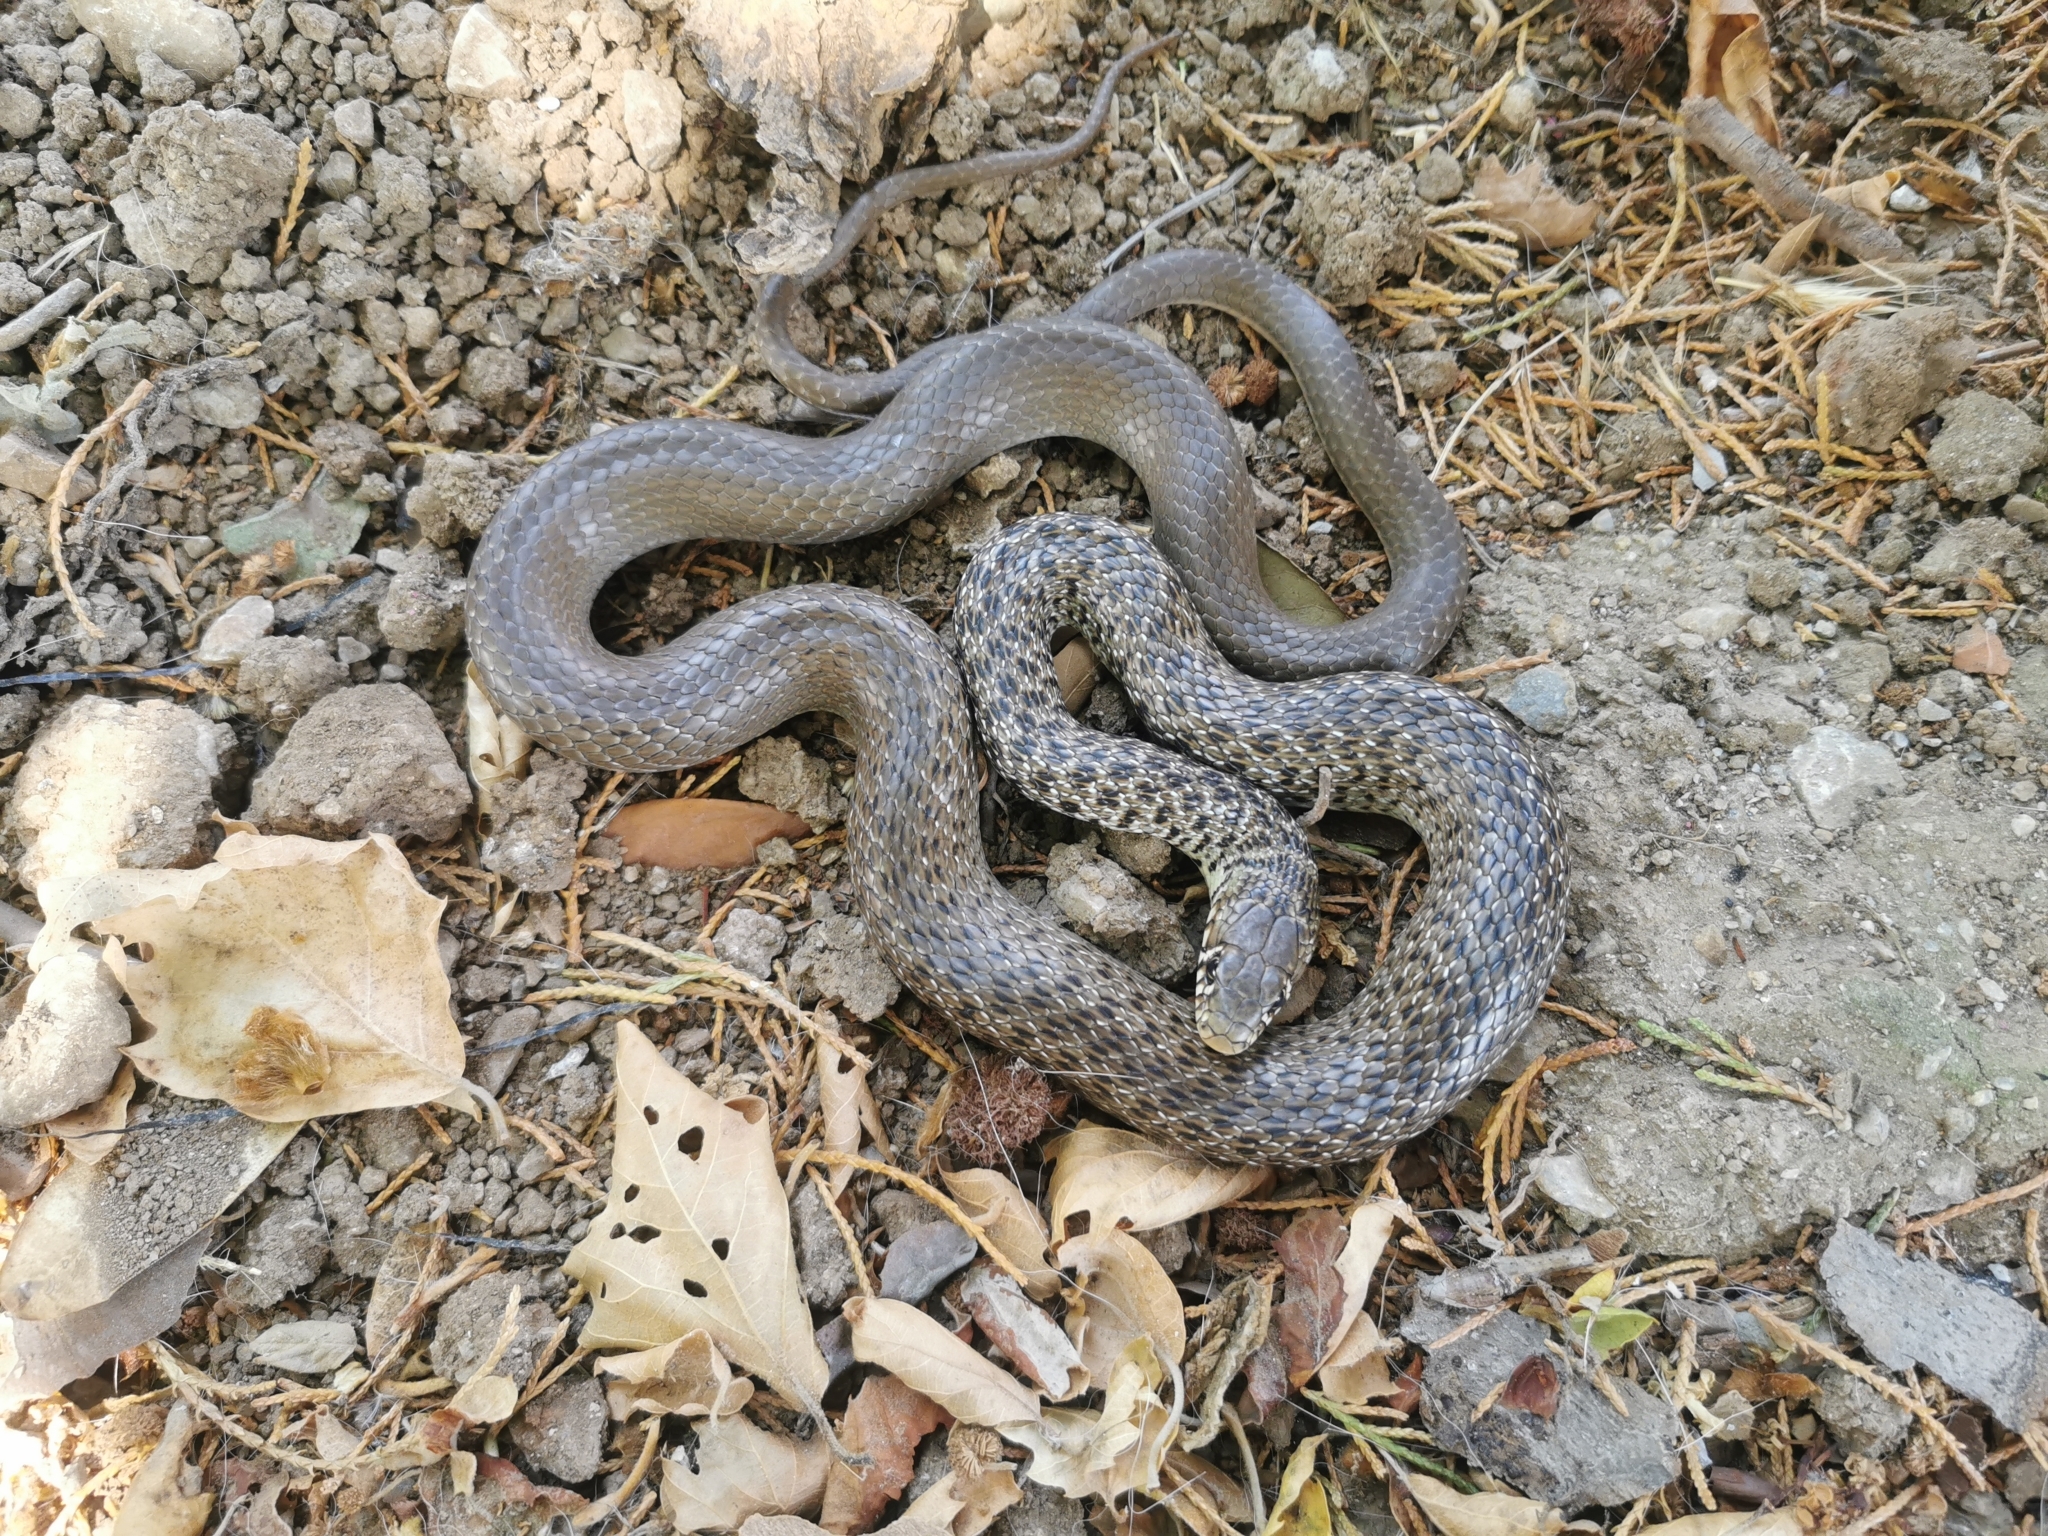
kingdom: Animalia
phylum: Chordata
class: Squamata
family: Colubridae
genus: Hierophis
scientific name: Hierophis gemonensis
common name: Balkan whip snake
